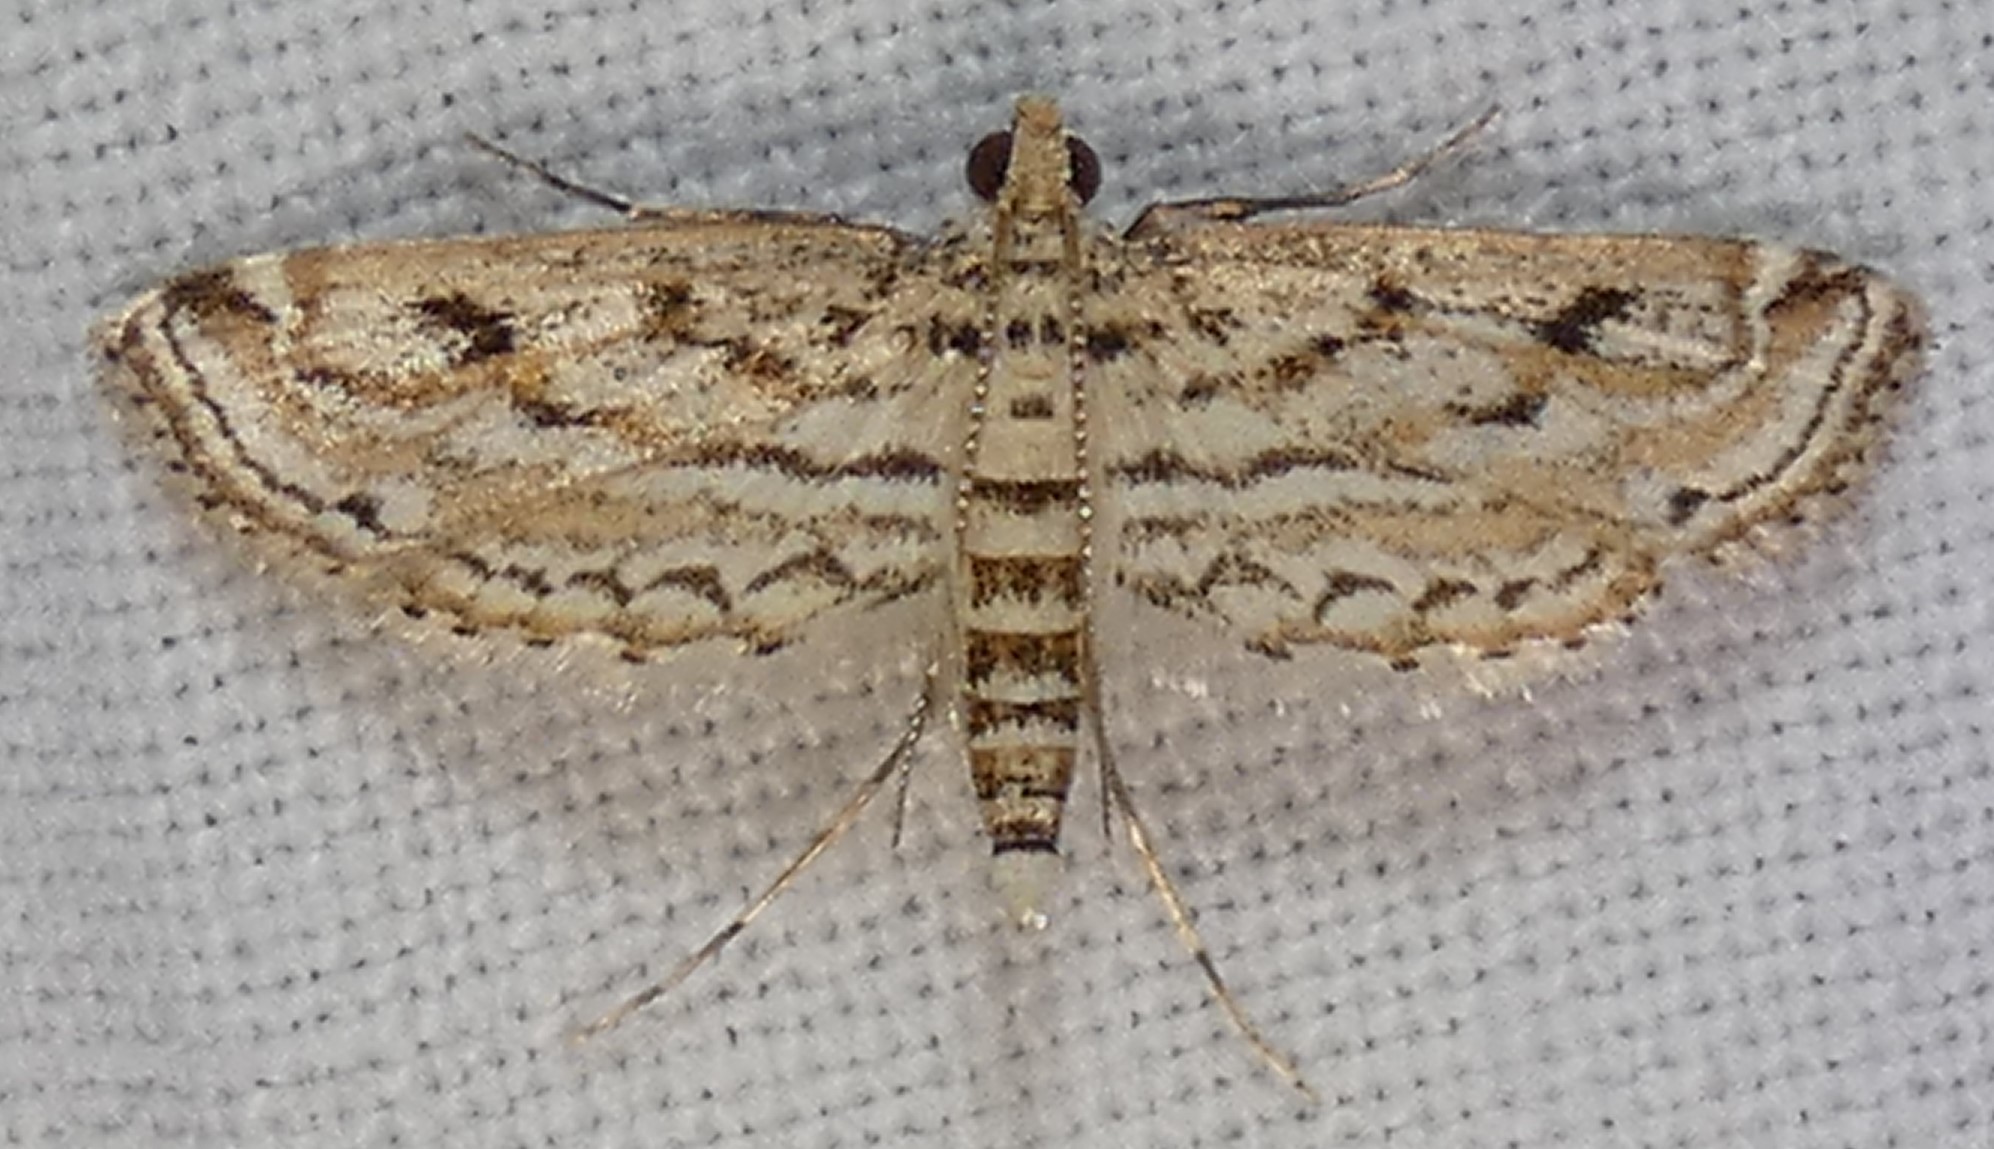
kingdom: Animalia
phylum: Arthropoda
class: Insecta
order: Lepidoptera
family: Crambidae
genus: Parapoynx
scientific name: Parapoynx allionealis
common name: Bladderwort casemaker
